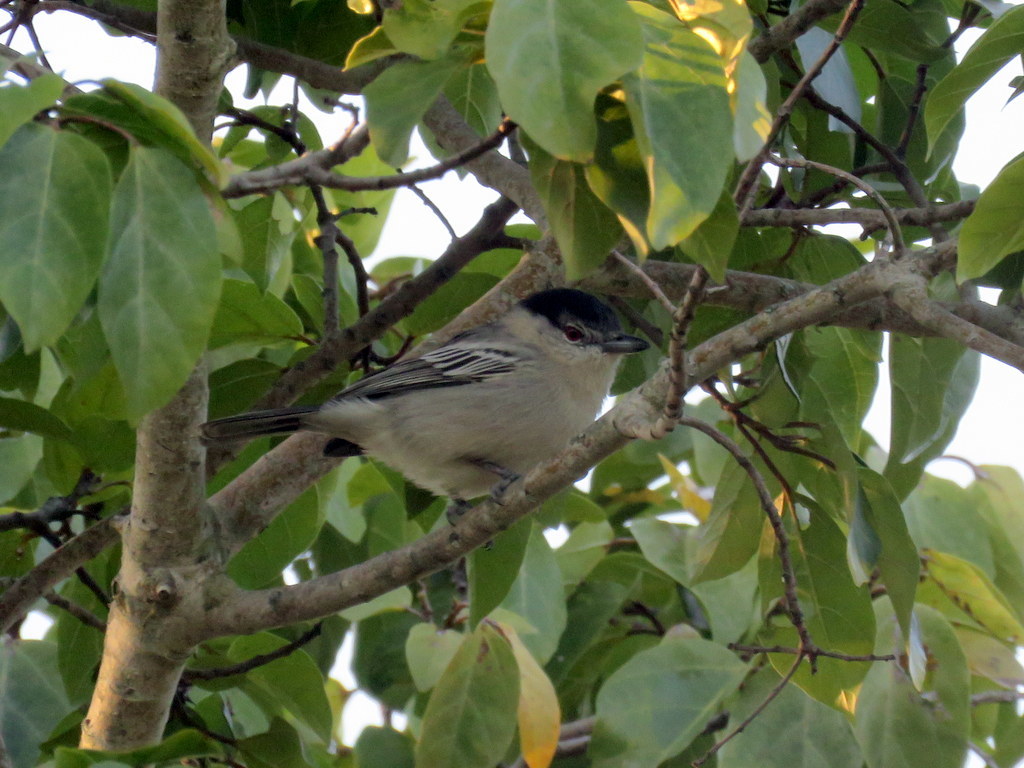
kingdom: Animalia
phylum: Chordata
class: Aves
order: Passeriformes
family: Malaconotidae
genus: Dryoscopus
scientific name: Dryoscopus cubla
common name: Black-backed puffback
